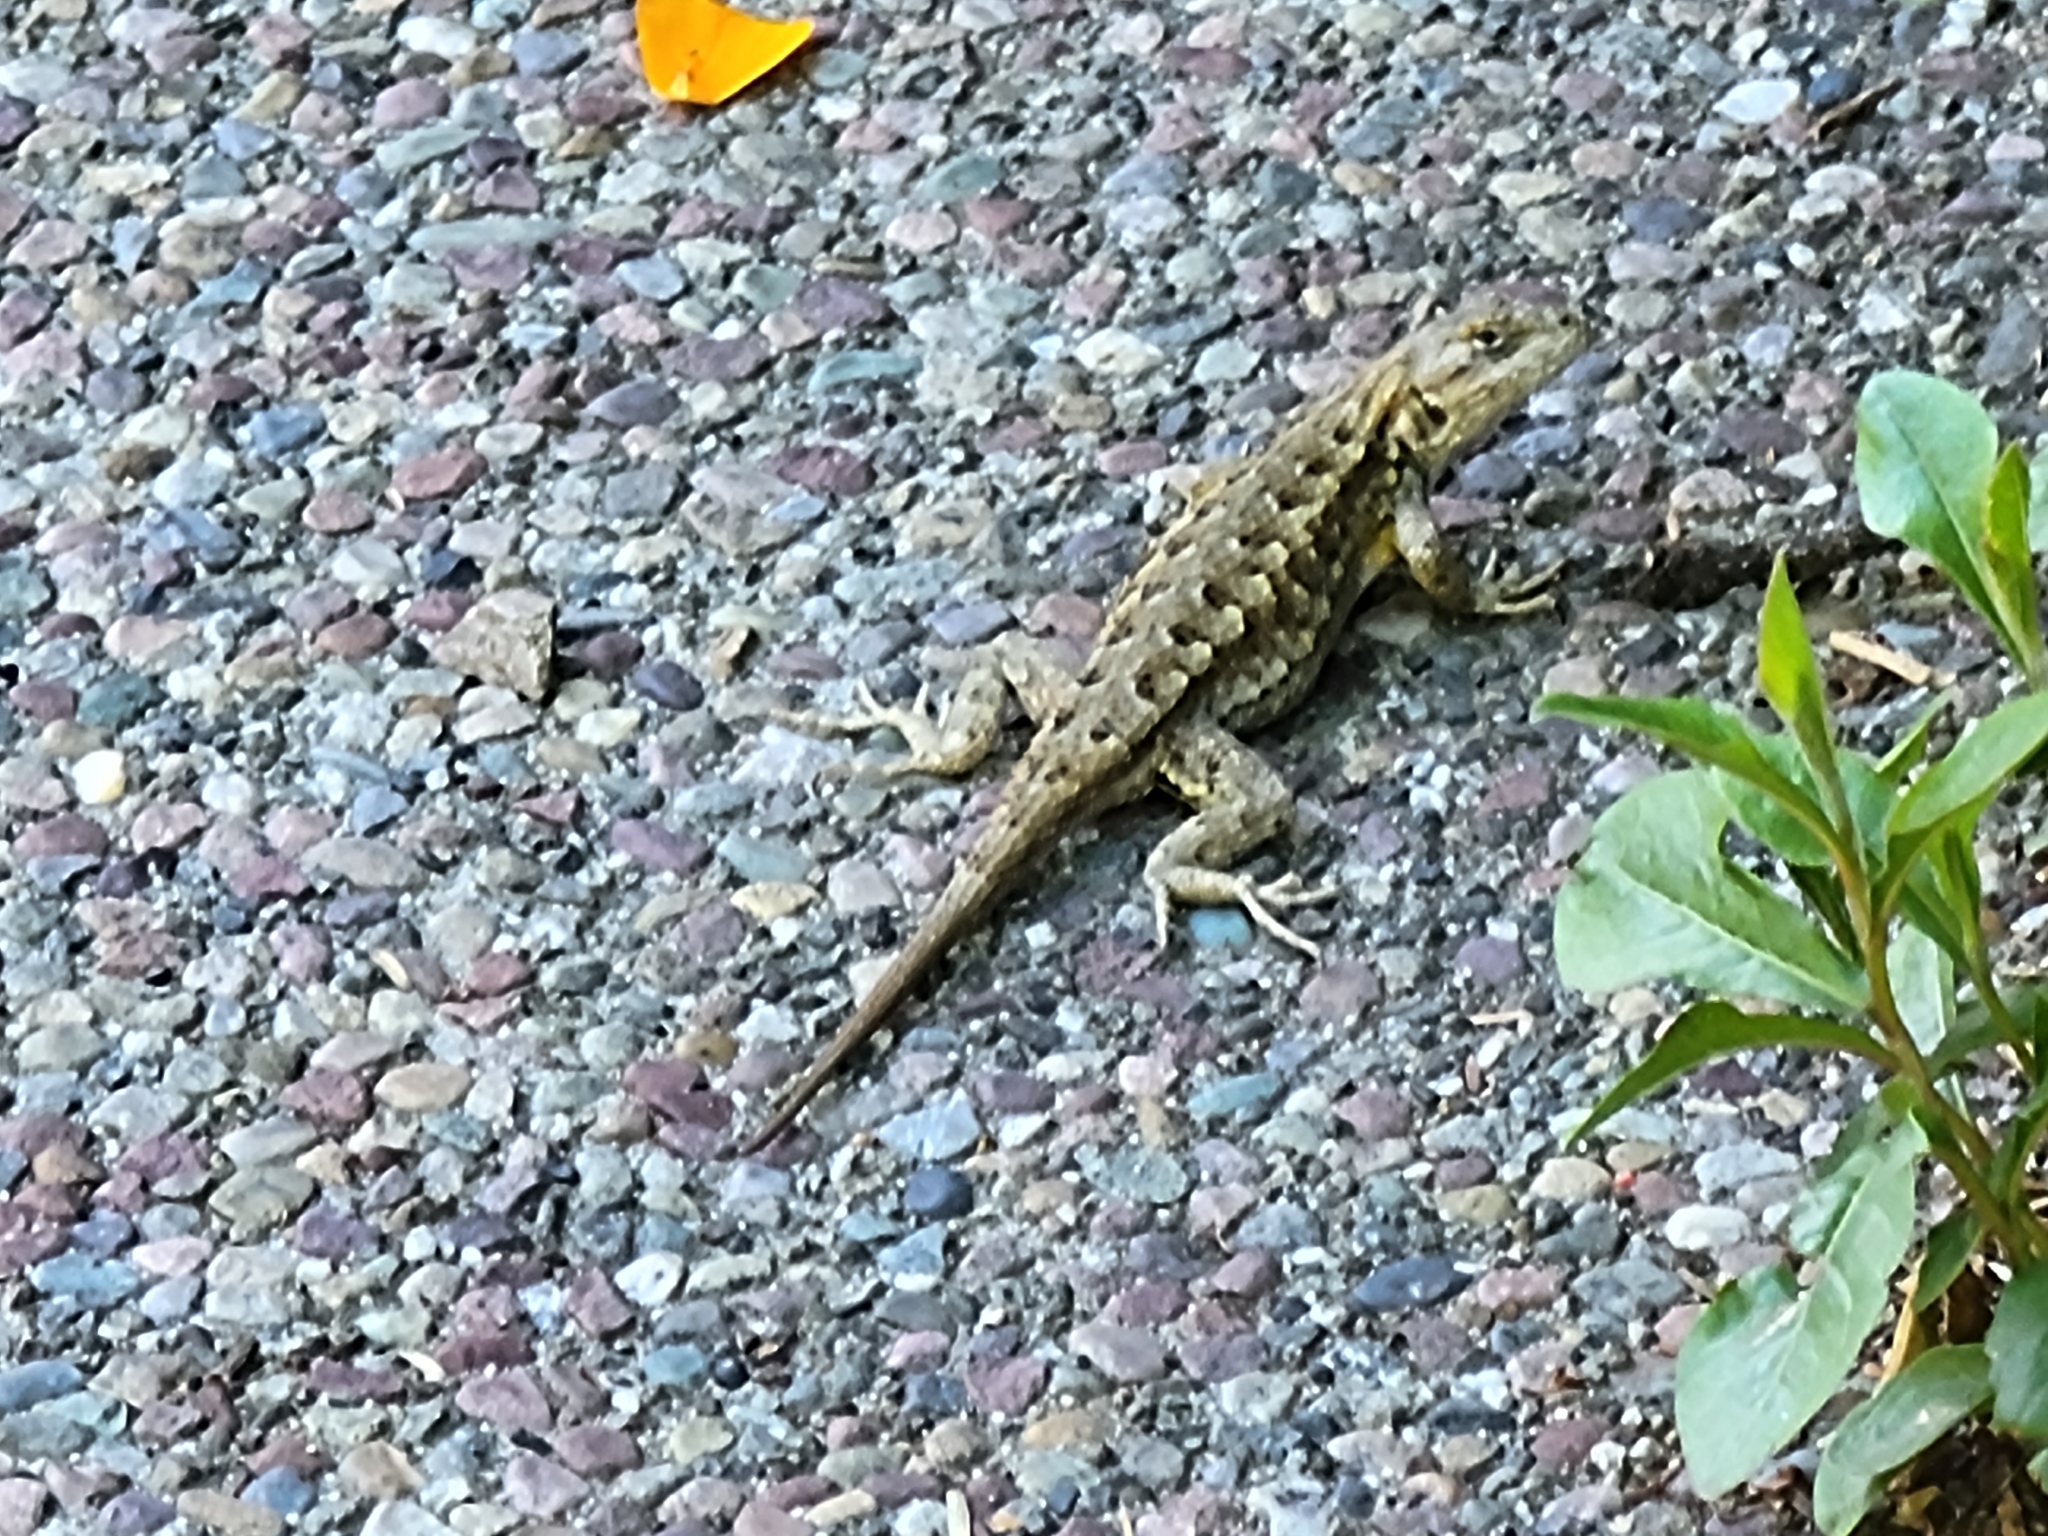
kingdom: Animalia
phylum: Chordata
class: Squamata
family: Phrynosomatidae
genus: Sceloporus
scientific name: Sceloporus occidentalis
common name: Western fence lizard
